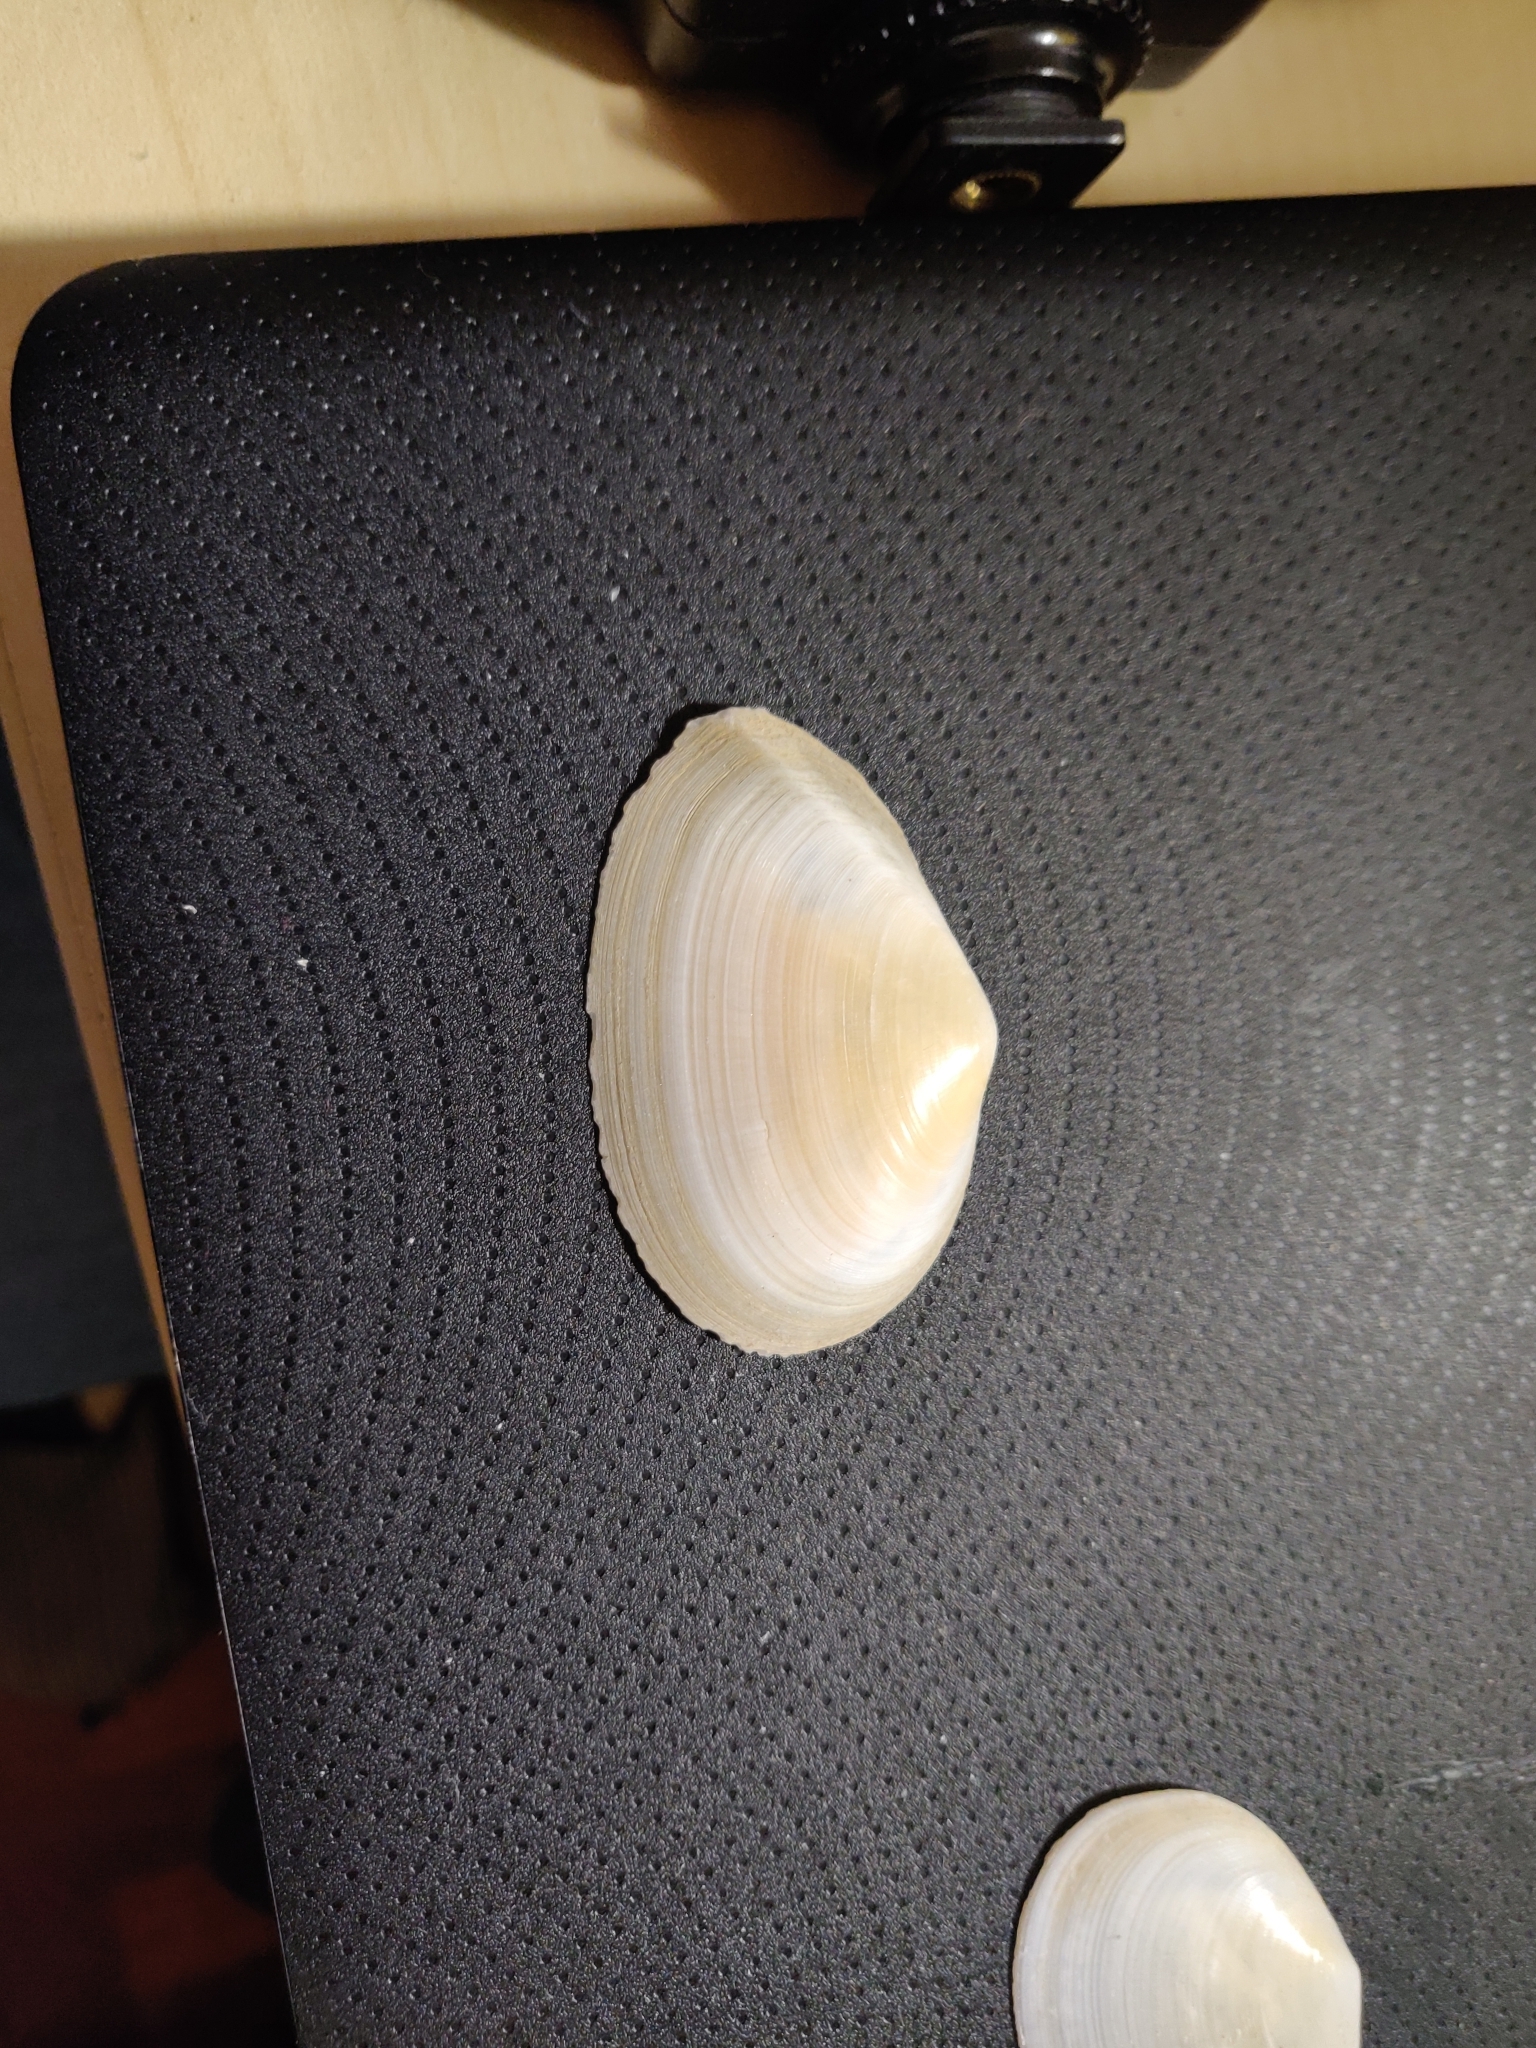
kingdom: Animalia
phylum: Mollusca
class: Bivalvia
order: Cardiida
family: Tellinidae
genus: Peronaea
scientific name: Peronaea planata
